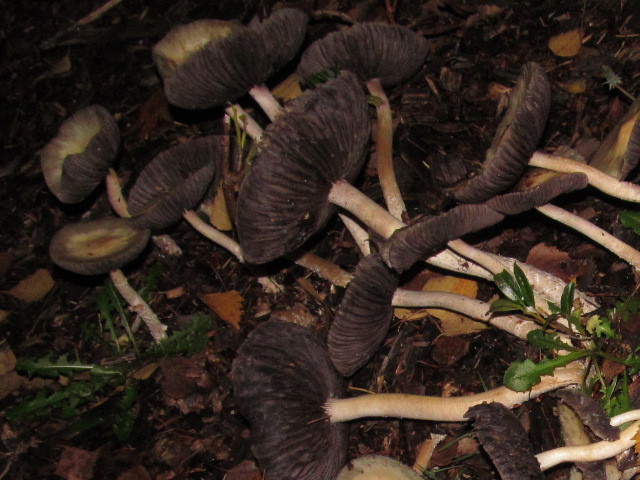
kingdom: Fungi
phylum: Basidiomycota
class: Agaricomycetes
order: Agaricales
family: Strophariaceae
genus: Stropharia
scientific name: Stropharia ambigua
